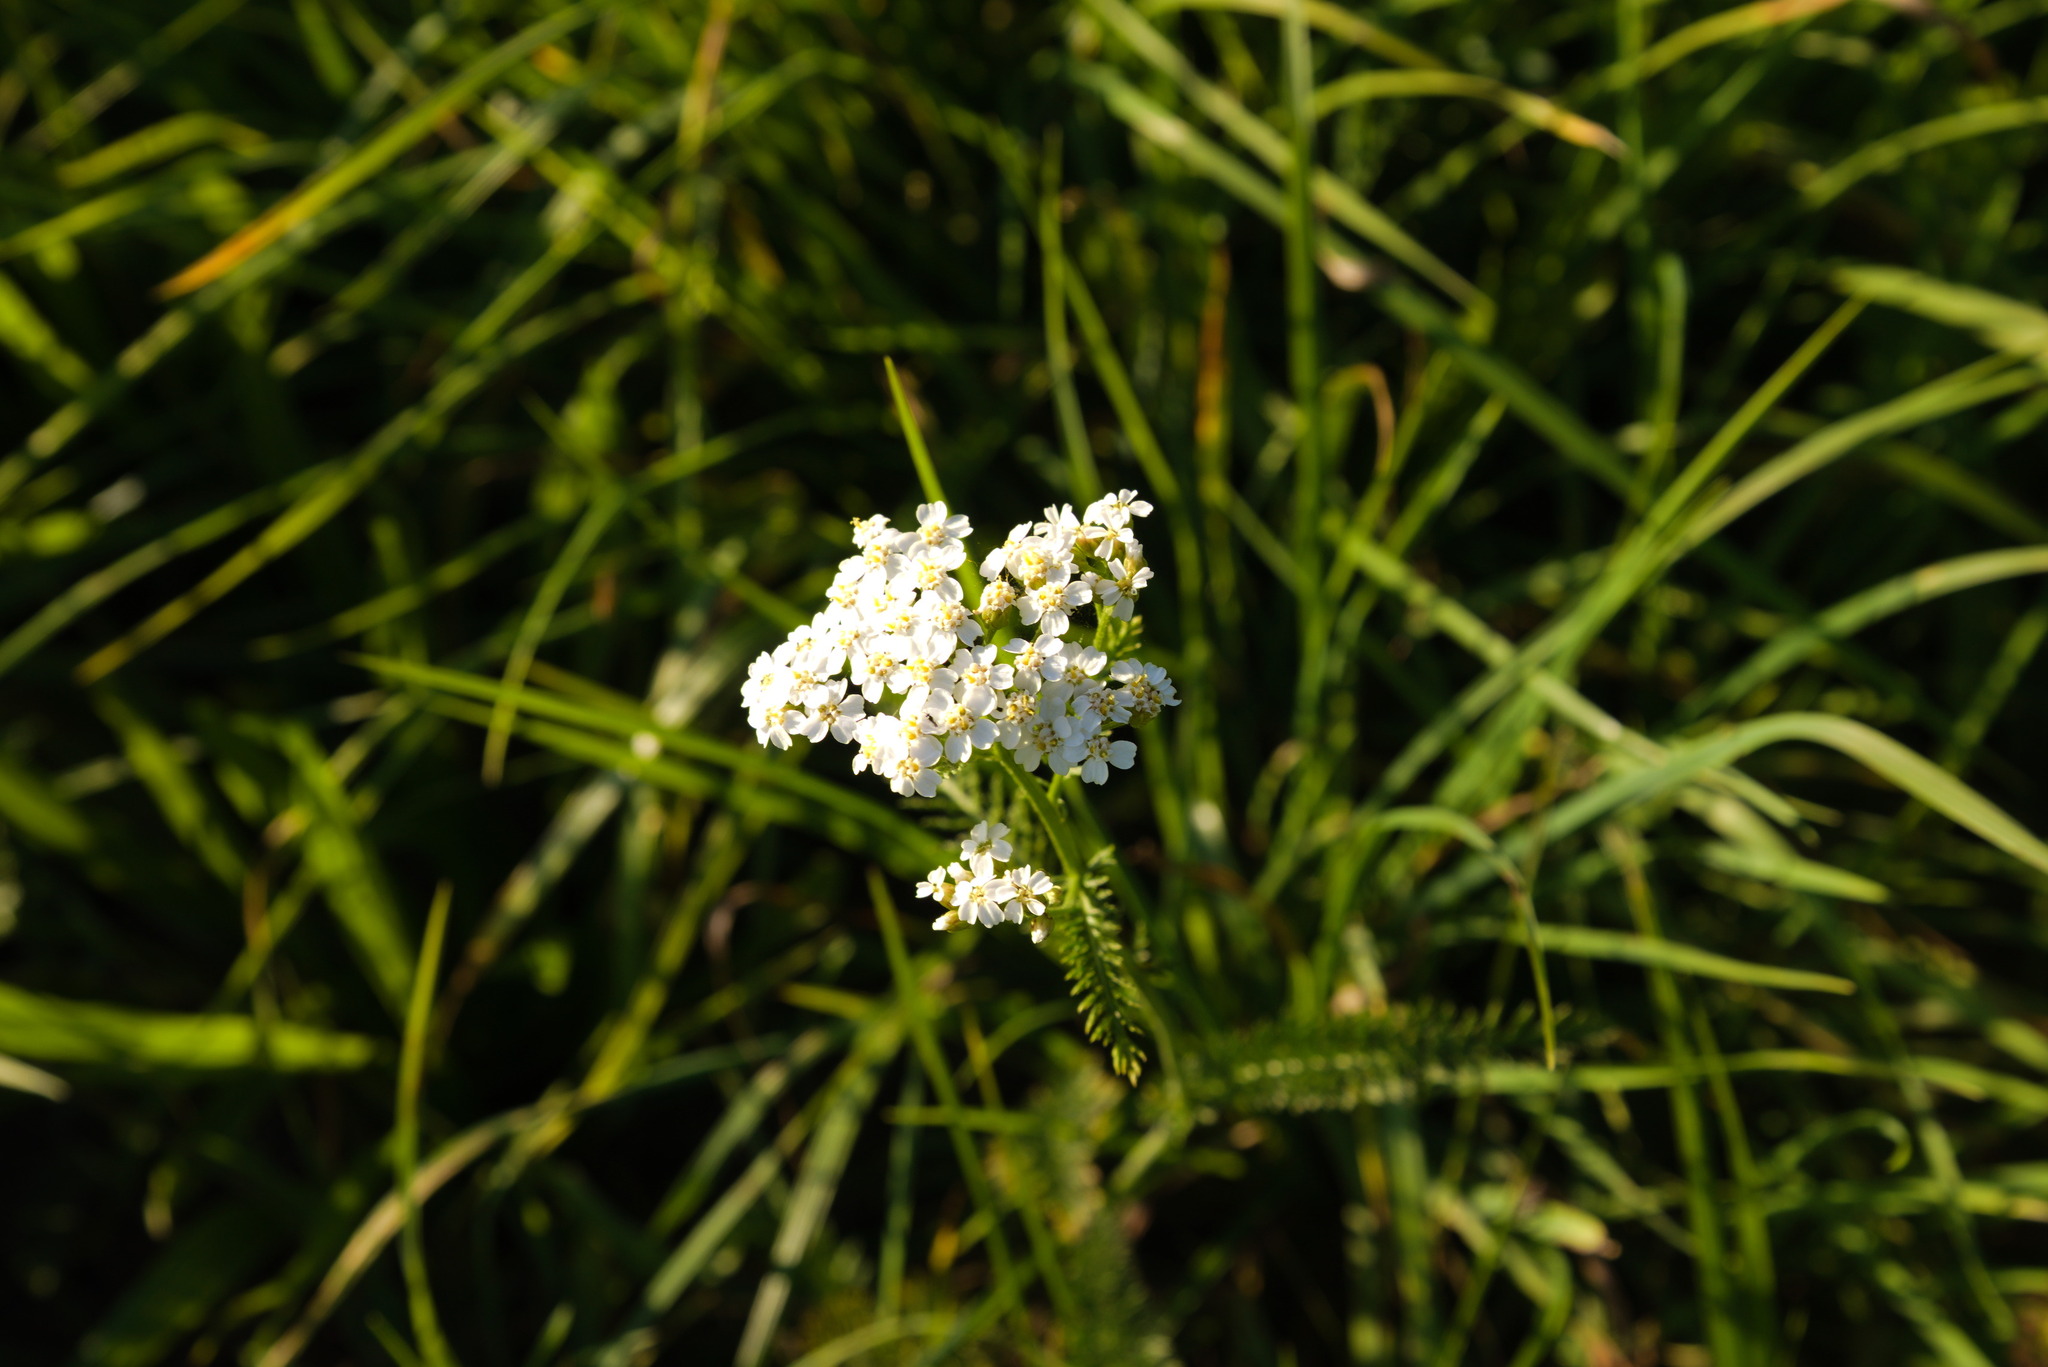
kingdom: Plantae
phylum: Tracheophyta
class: Magnoliopsida
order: Asterales
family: Asteraceae
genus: Achillea
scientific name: Achillea millefolium
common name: Yarrow
